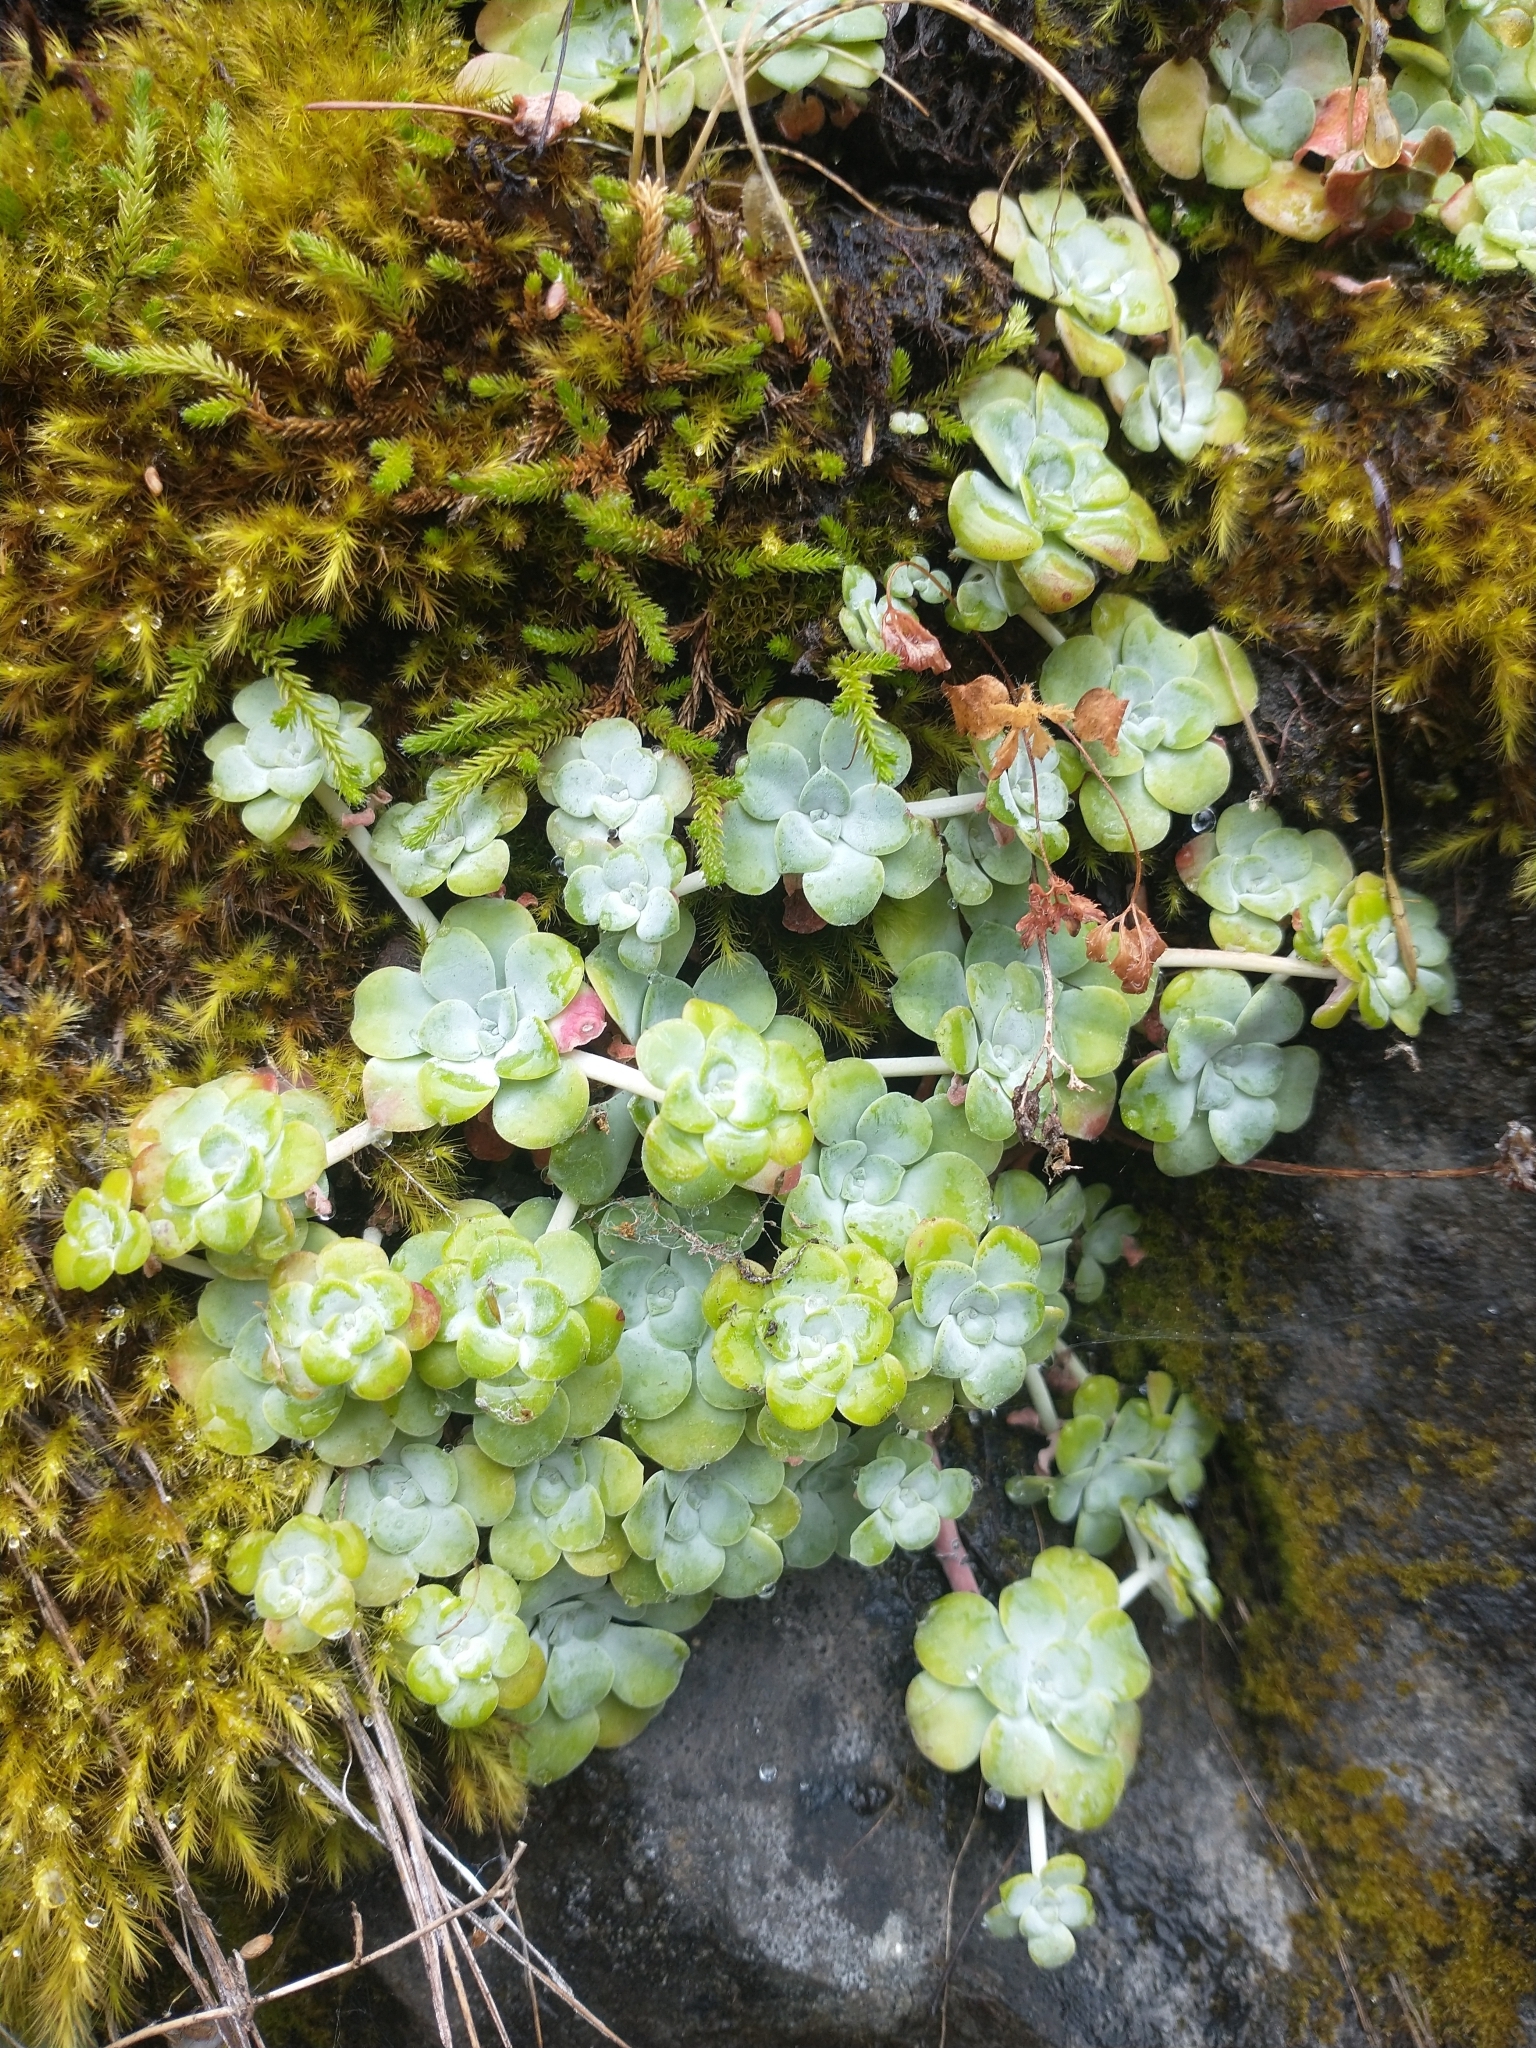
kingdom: Plantae
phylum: Tracheophyta
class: Magnoliopsida
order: Saxifragales
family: Crassulaceae
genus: Sedum
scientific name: Sedum spathulifolium
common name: Colorado stonecrop
